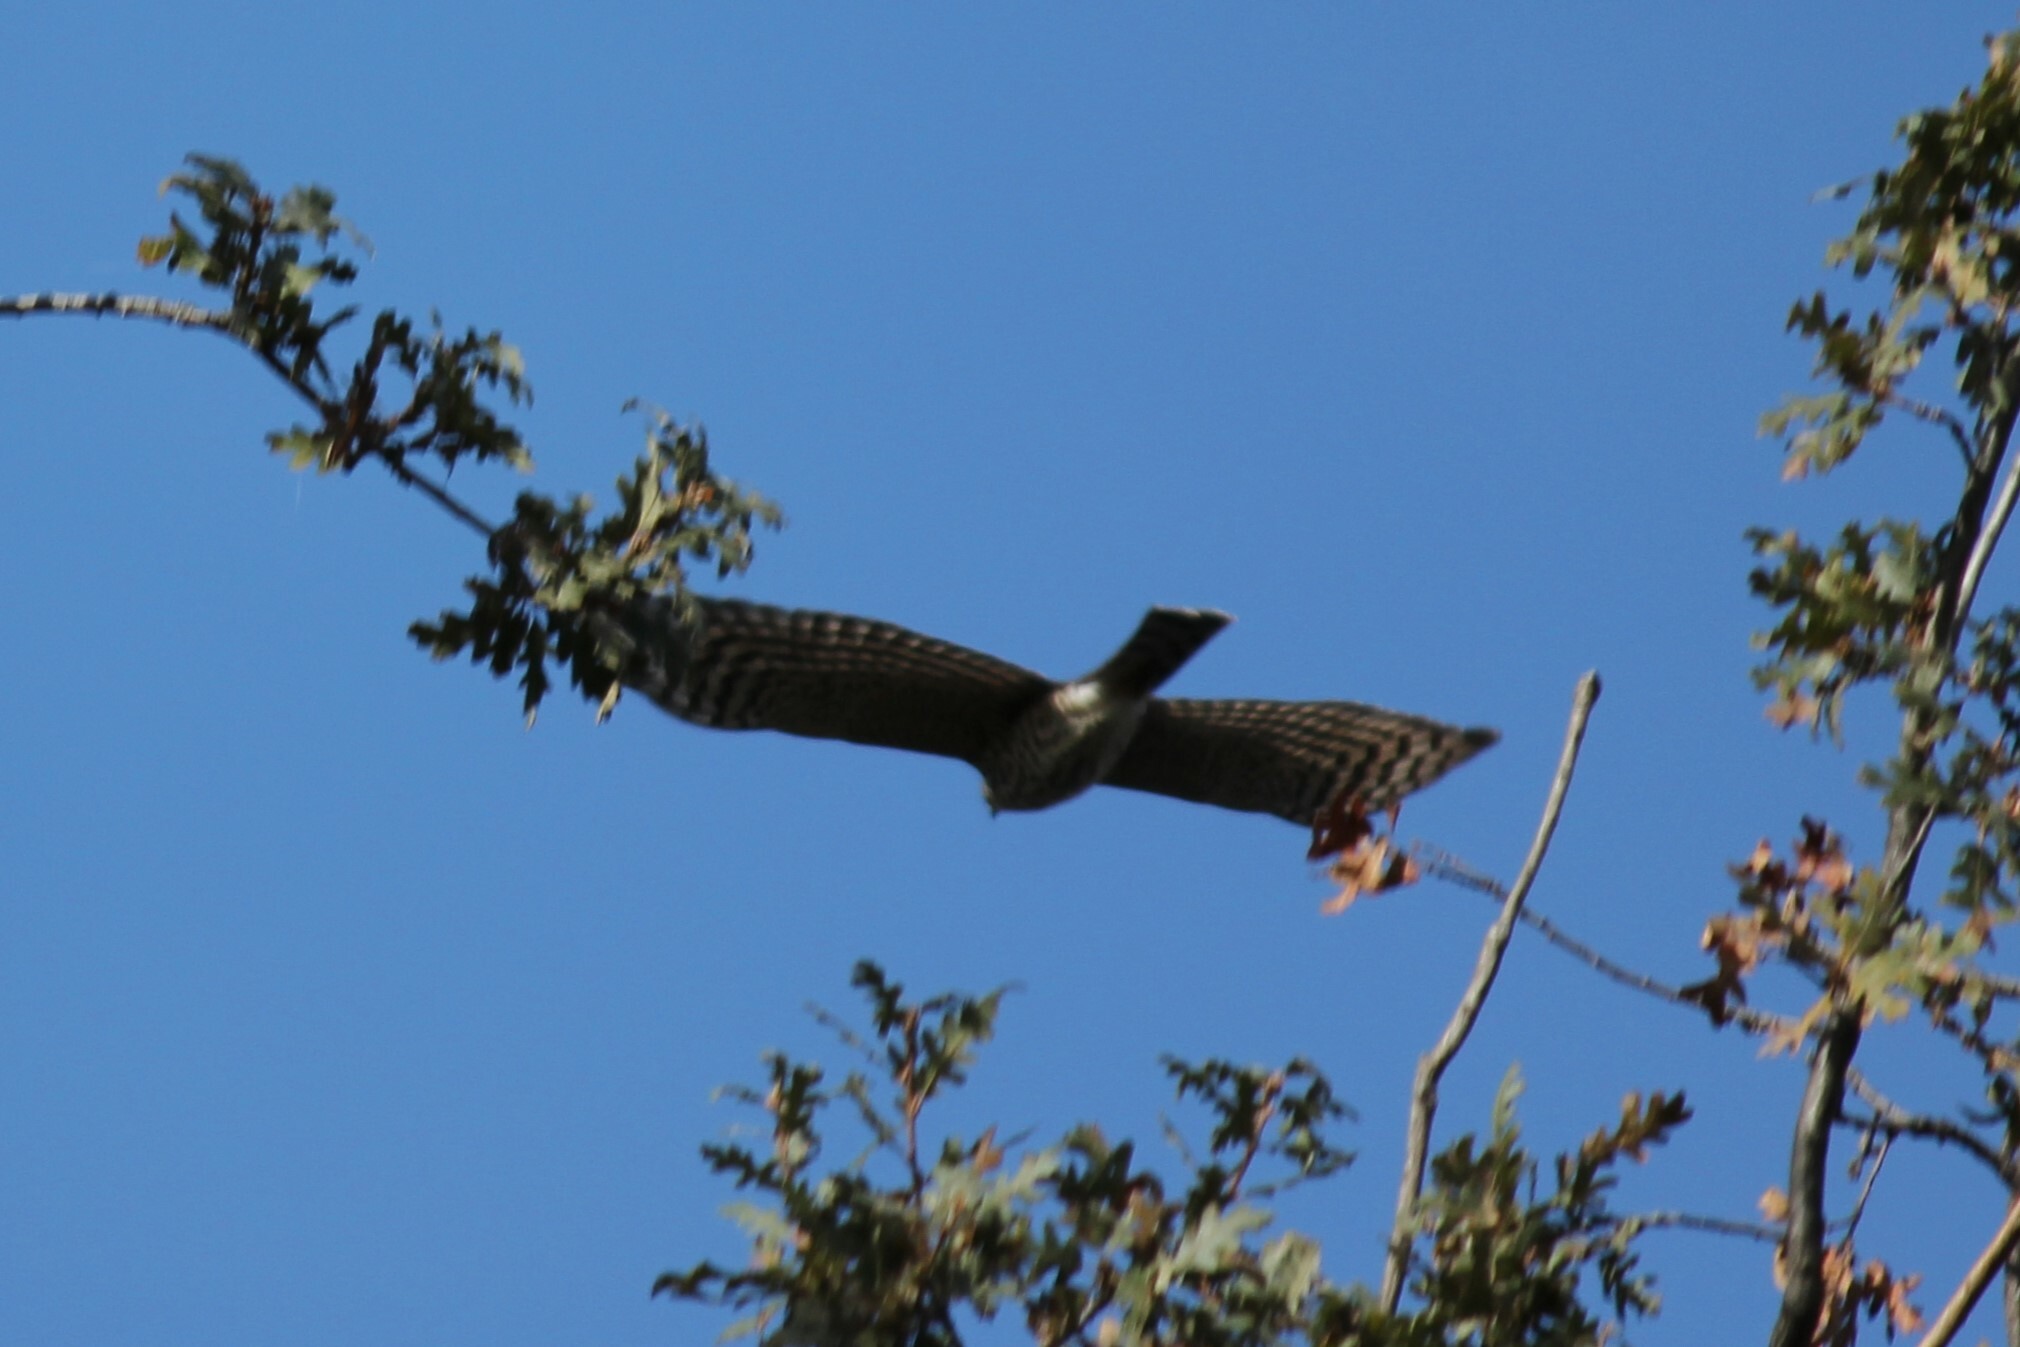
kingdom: Animalia
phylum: Chordata
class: Aves
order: Accipitriformes
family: Accipitridae
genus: Accipiter
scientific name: Accipiter striatus
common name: Sharp-shinned hawk
